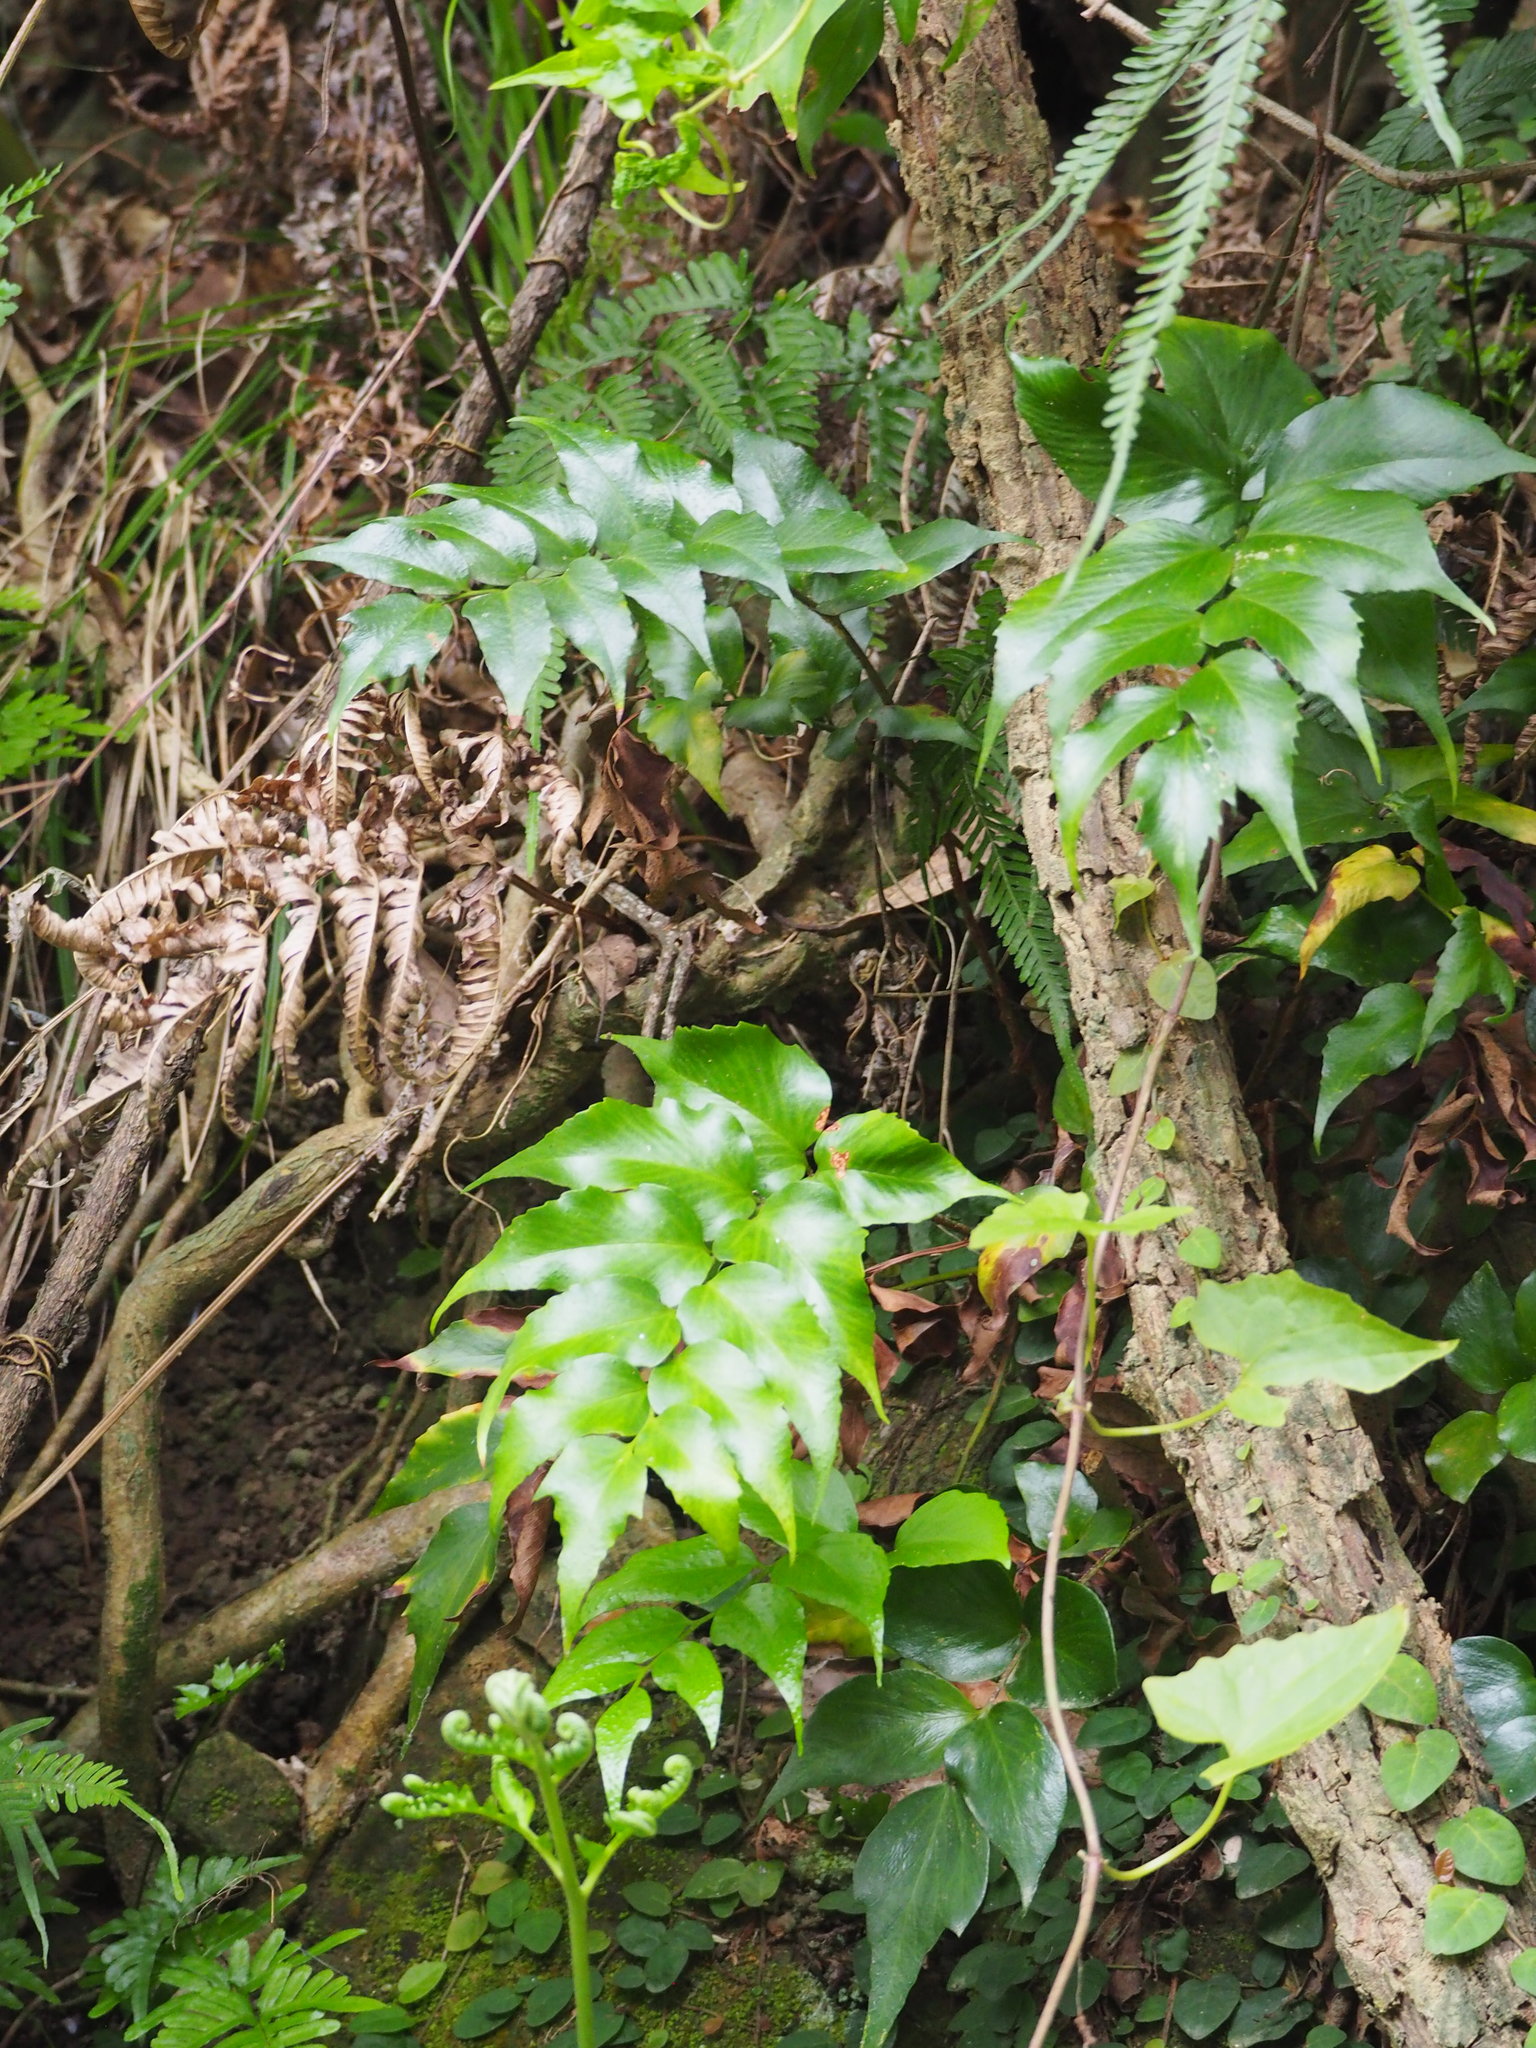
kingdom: Plantae
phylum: Tracheophyta
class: Polypodiopsida
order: Polypodiales
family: Dryopteridaceae
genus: Cyrtomium
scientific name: Cyrtomium falcatum
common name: House holly-fern
